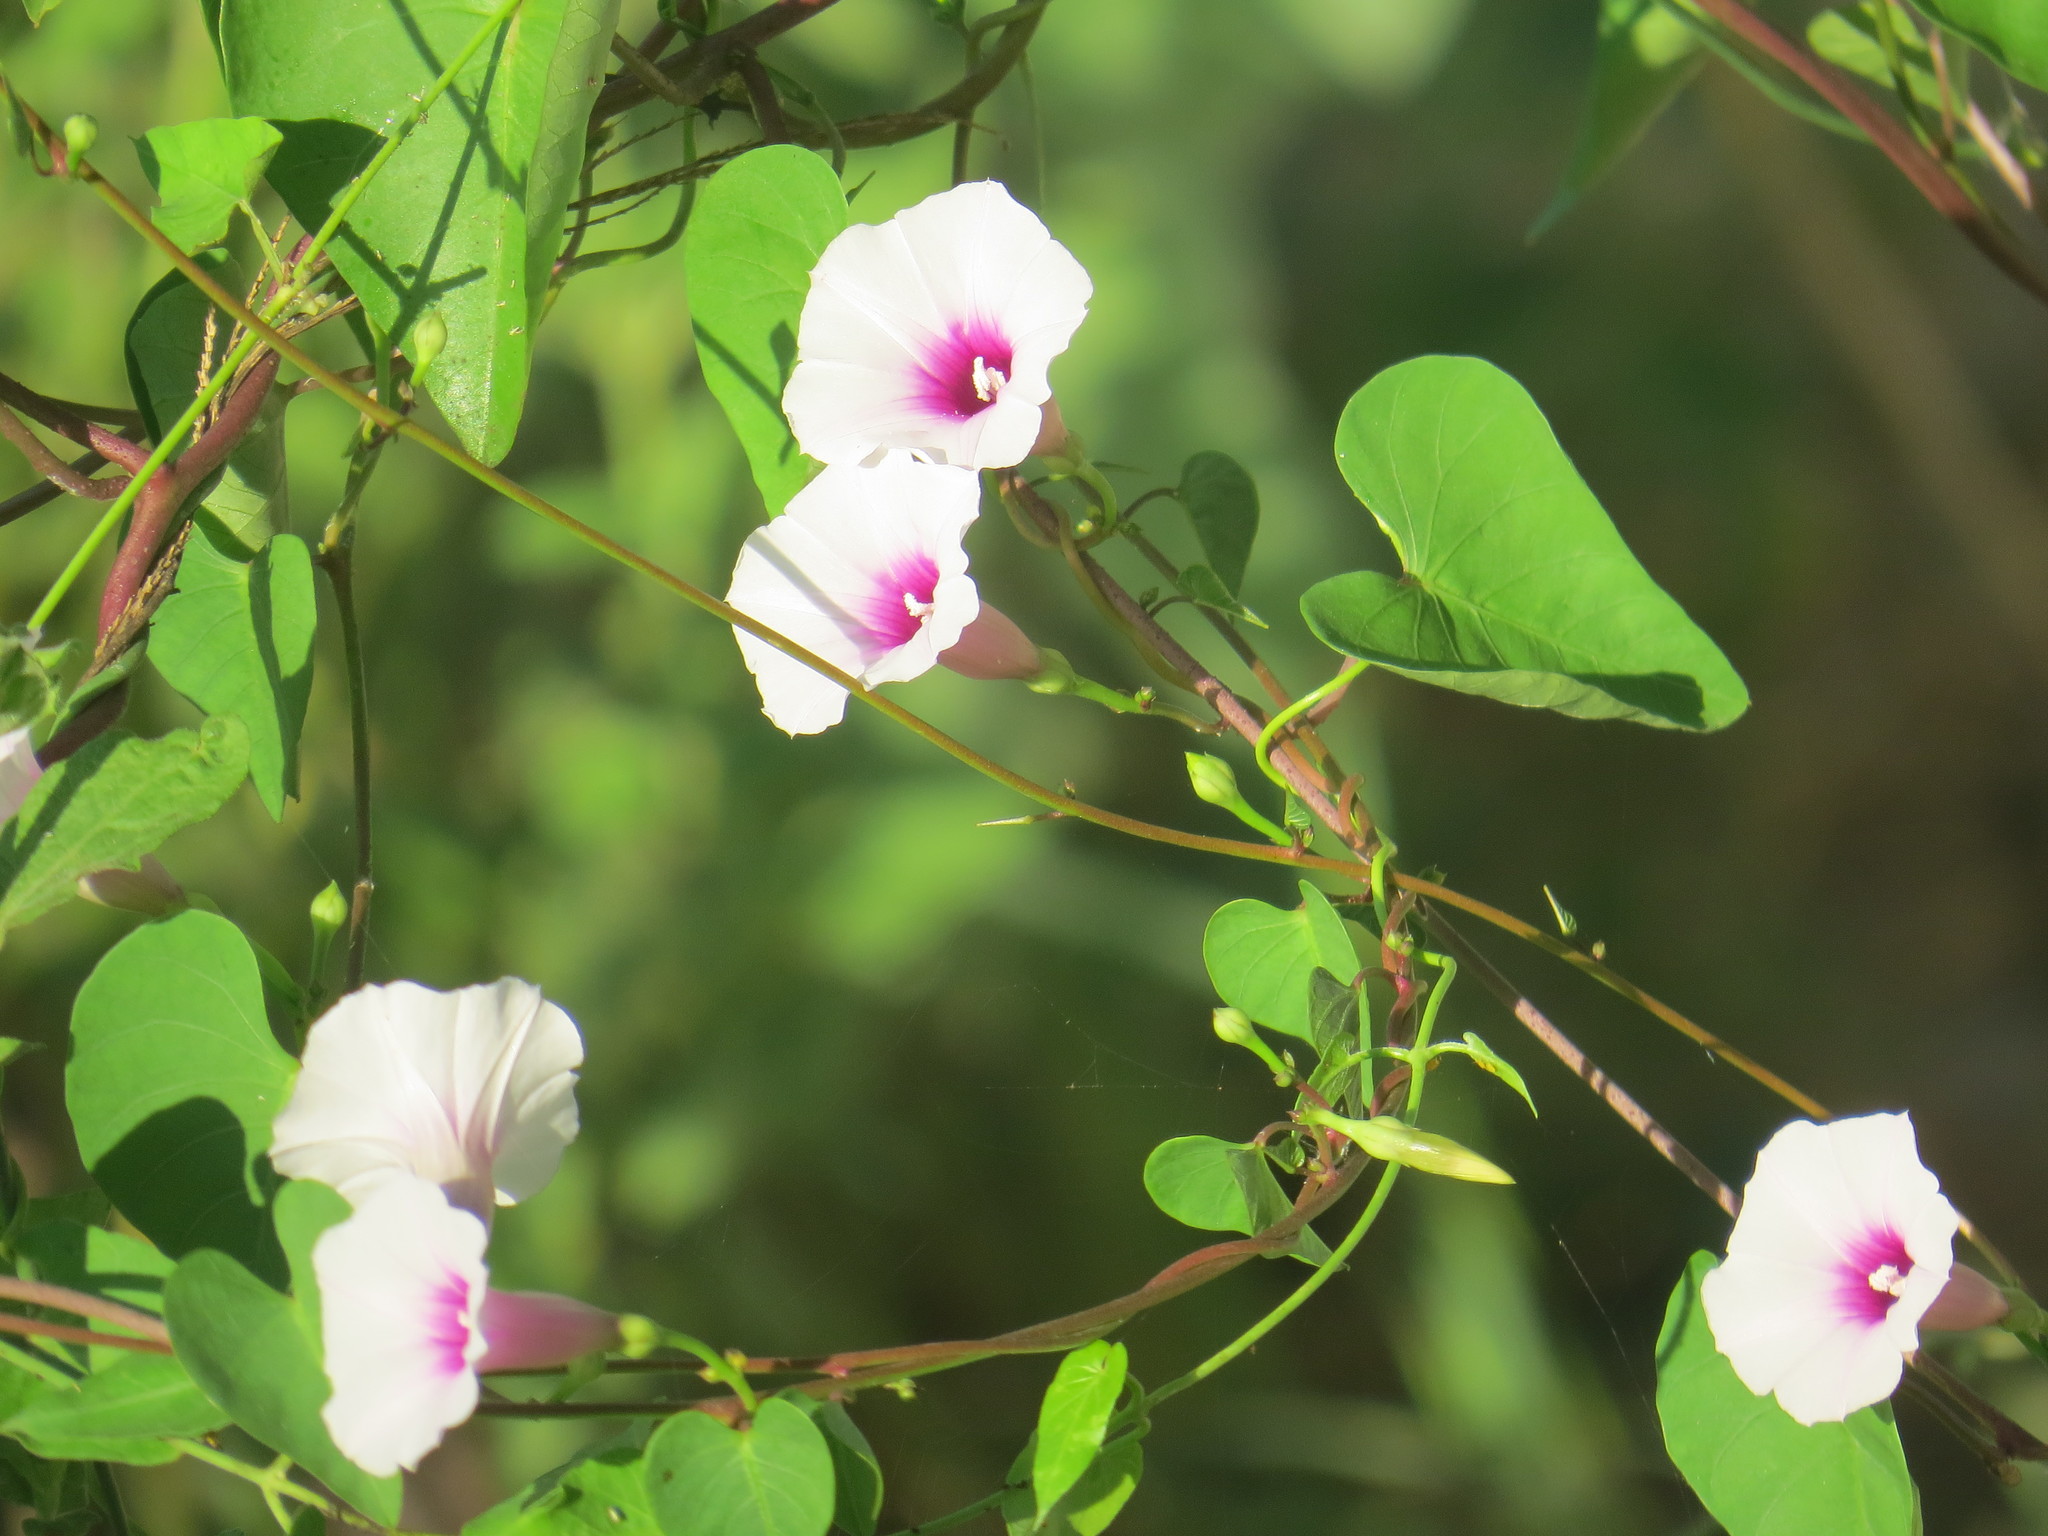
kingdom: Plantae
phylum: Tracheophyta
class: Magnoliopsida
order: Solanales
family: Convolvulaceae
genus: Ipomoea
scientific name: Ipomoea amnicola
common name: Redcenter morning-glory
